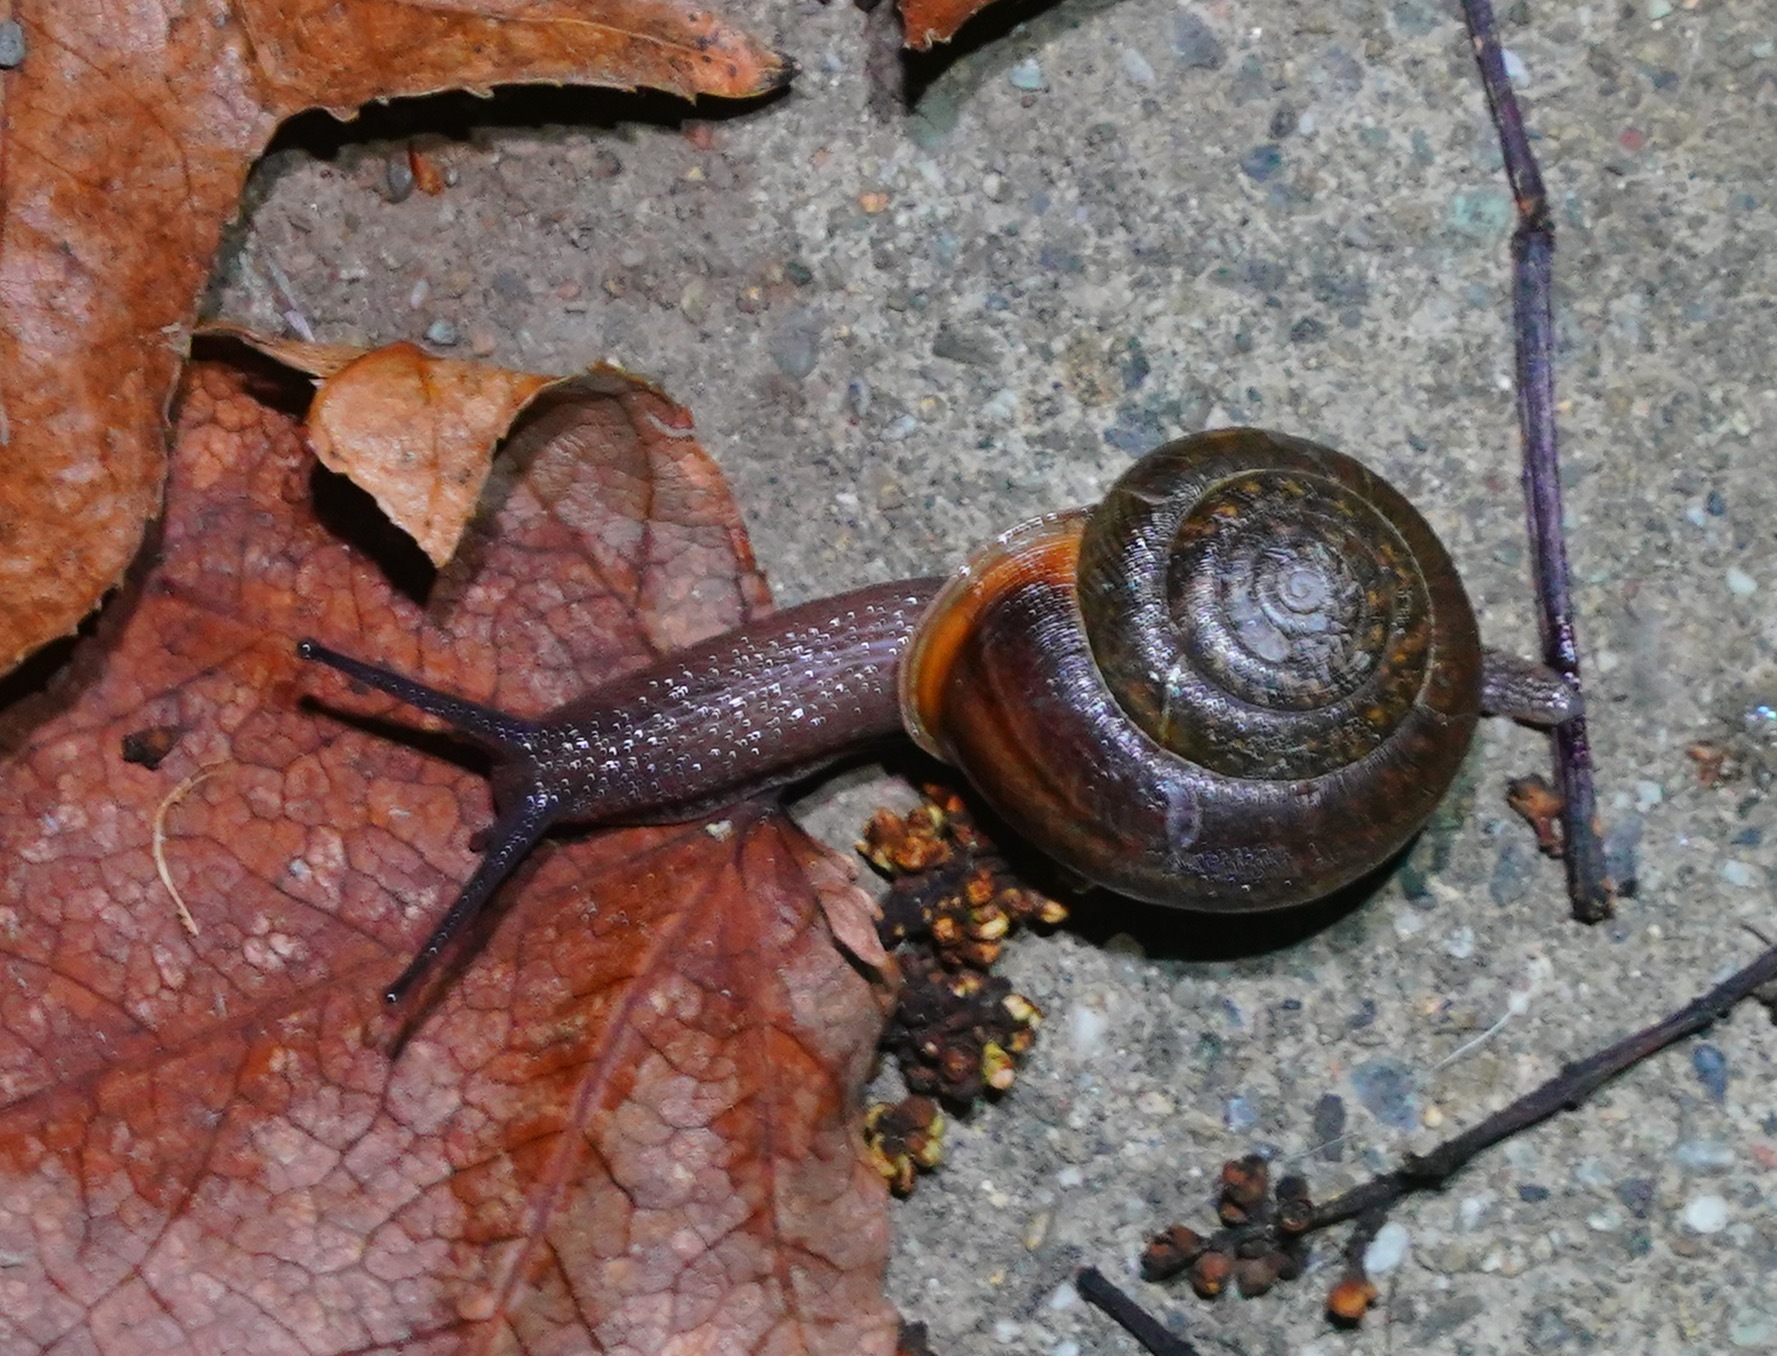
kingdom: Animalia
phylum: Mollusca
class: Gastropoda
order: Stylommatophora
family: Xanthonychidae
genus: Helminthoglypta
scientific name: Helminthoglypta diabloensis
